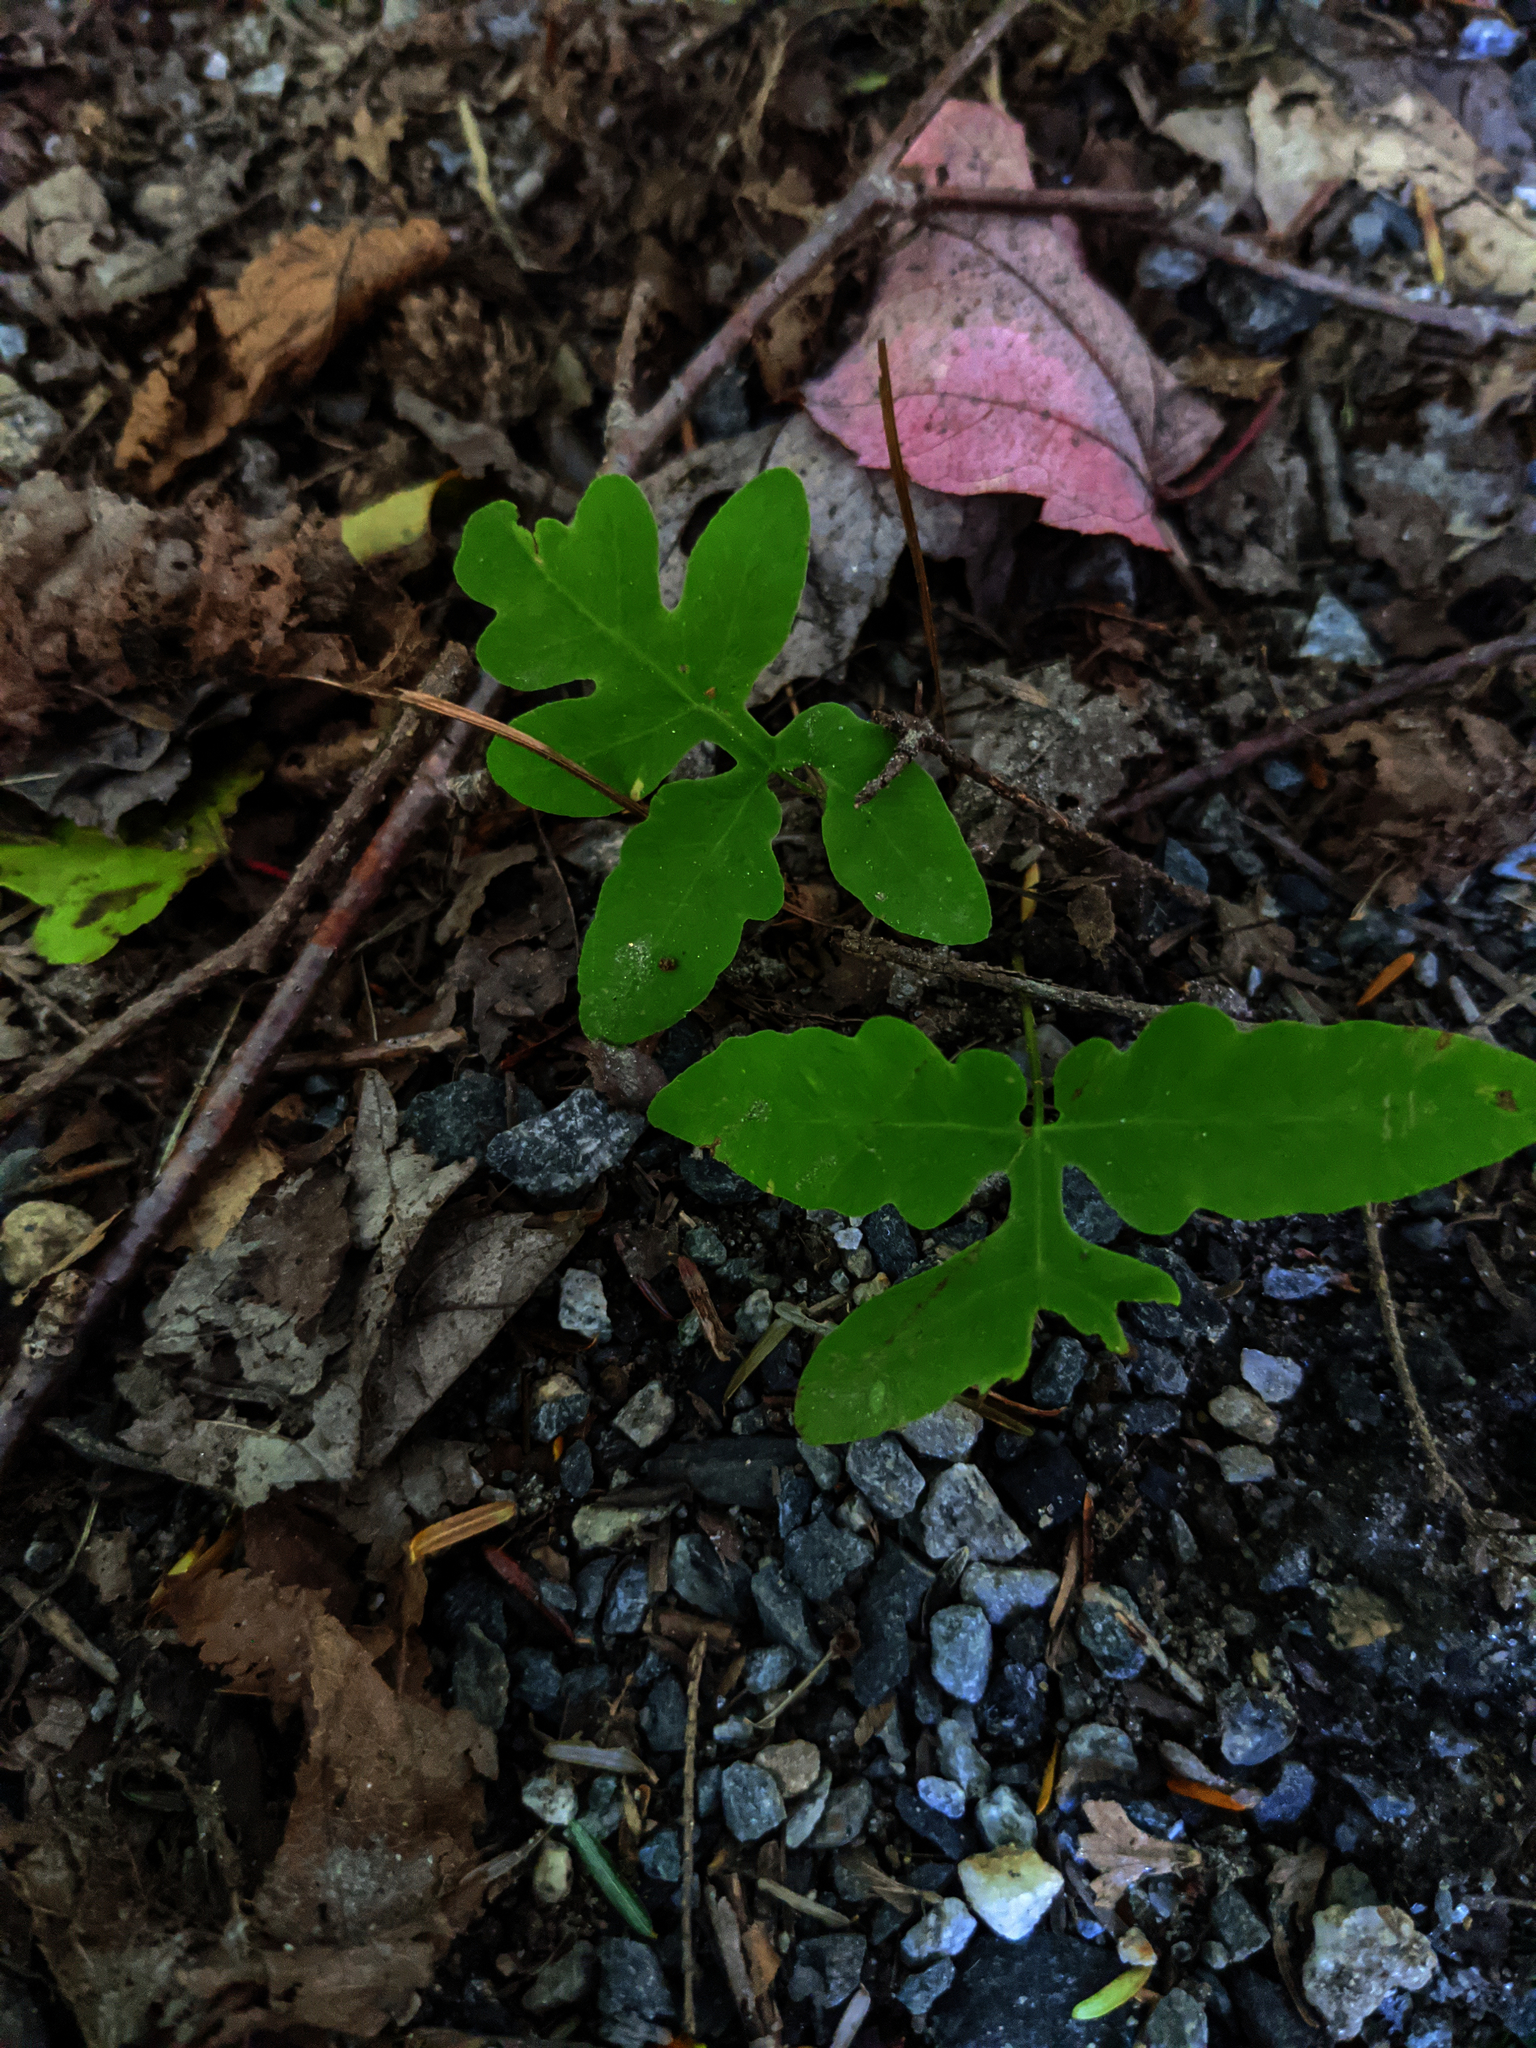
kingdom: Plantae
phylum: Tracheophyta
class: Polypodiopsida
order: Polypodiales
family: Onocleaceae
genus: Onoclea
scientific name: Onoclea sensibilis
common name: Sensitive fern
